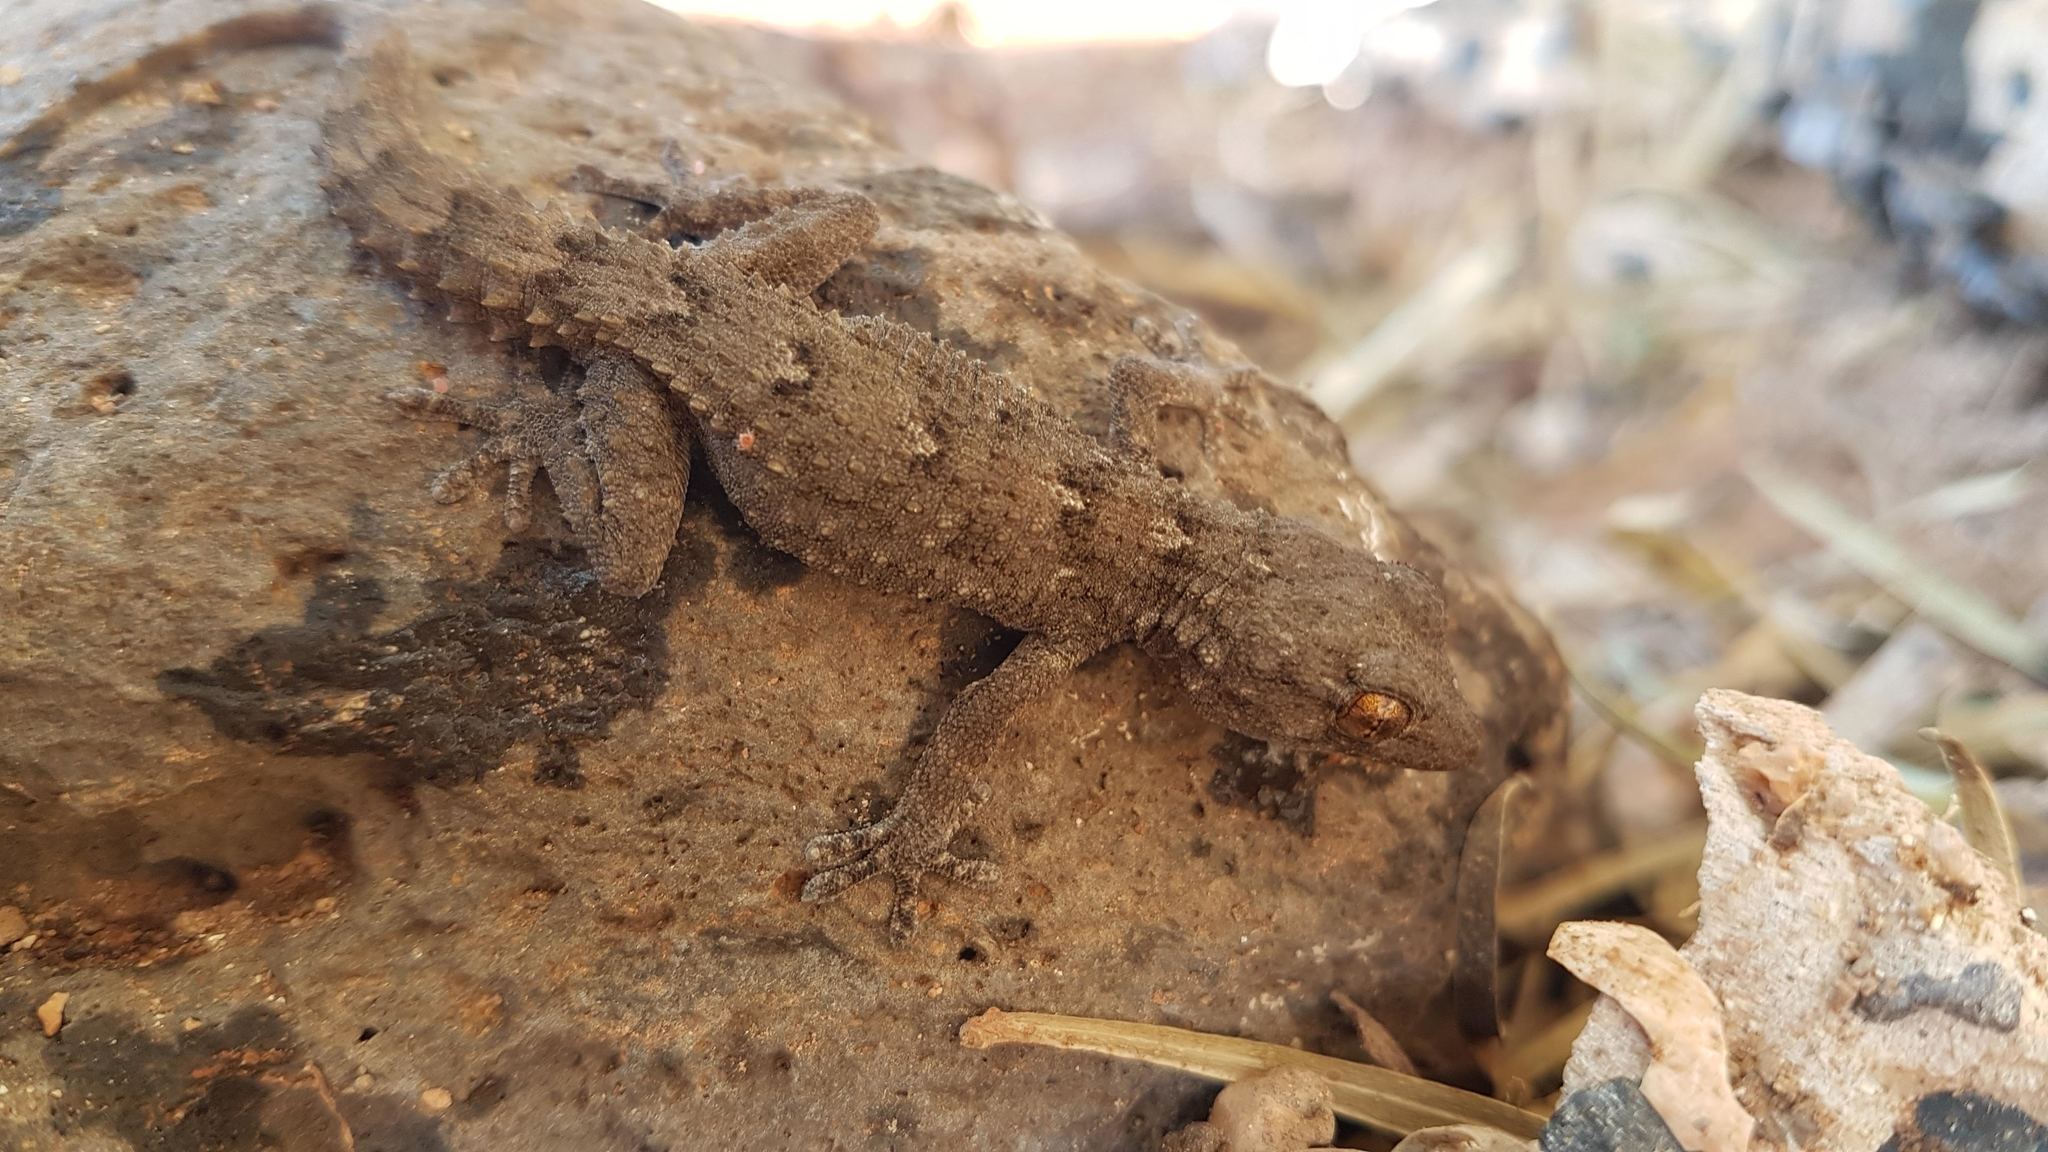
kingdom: Animalia
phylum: Chordata
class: Squamata
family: Phyllodactylidae
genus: Tarentola
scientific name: Tarentola angustimentalis
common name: East canary gecko
